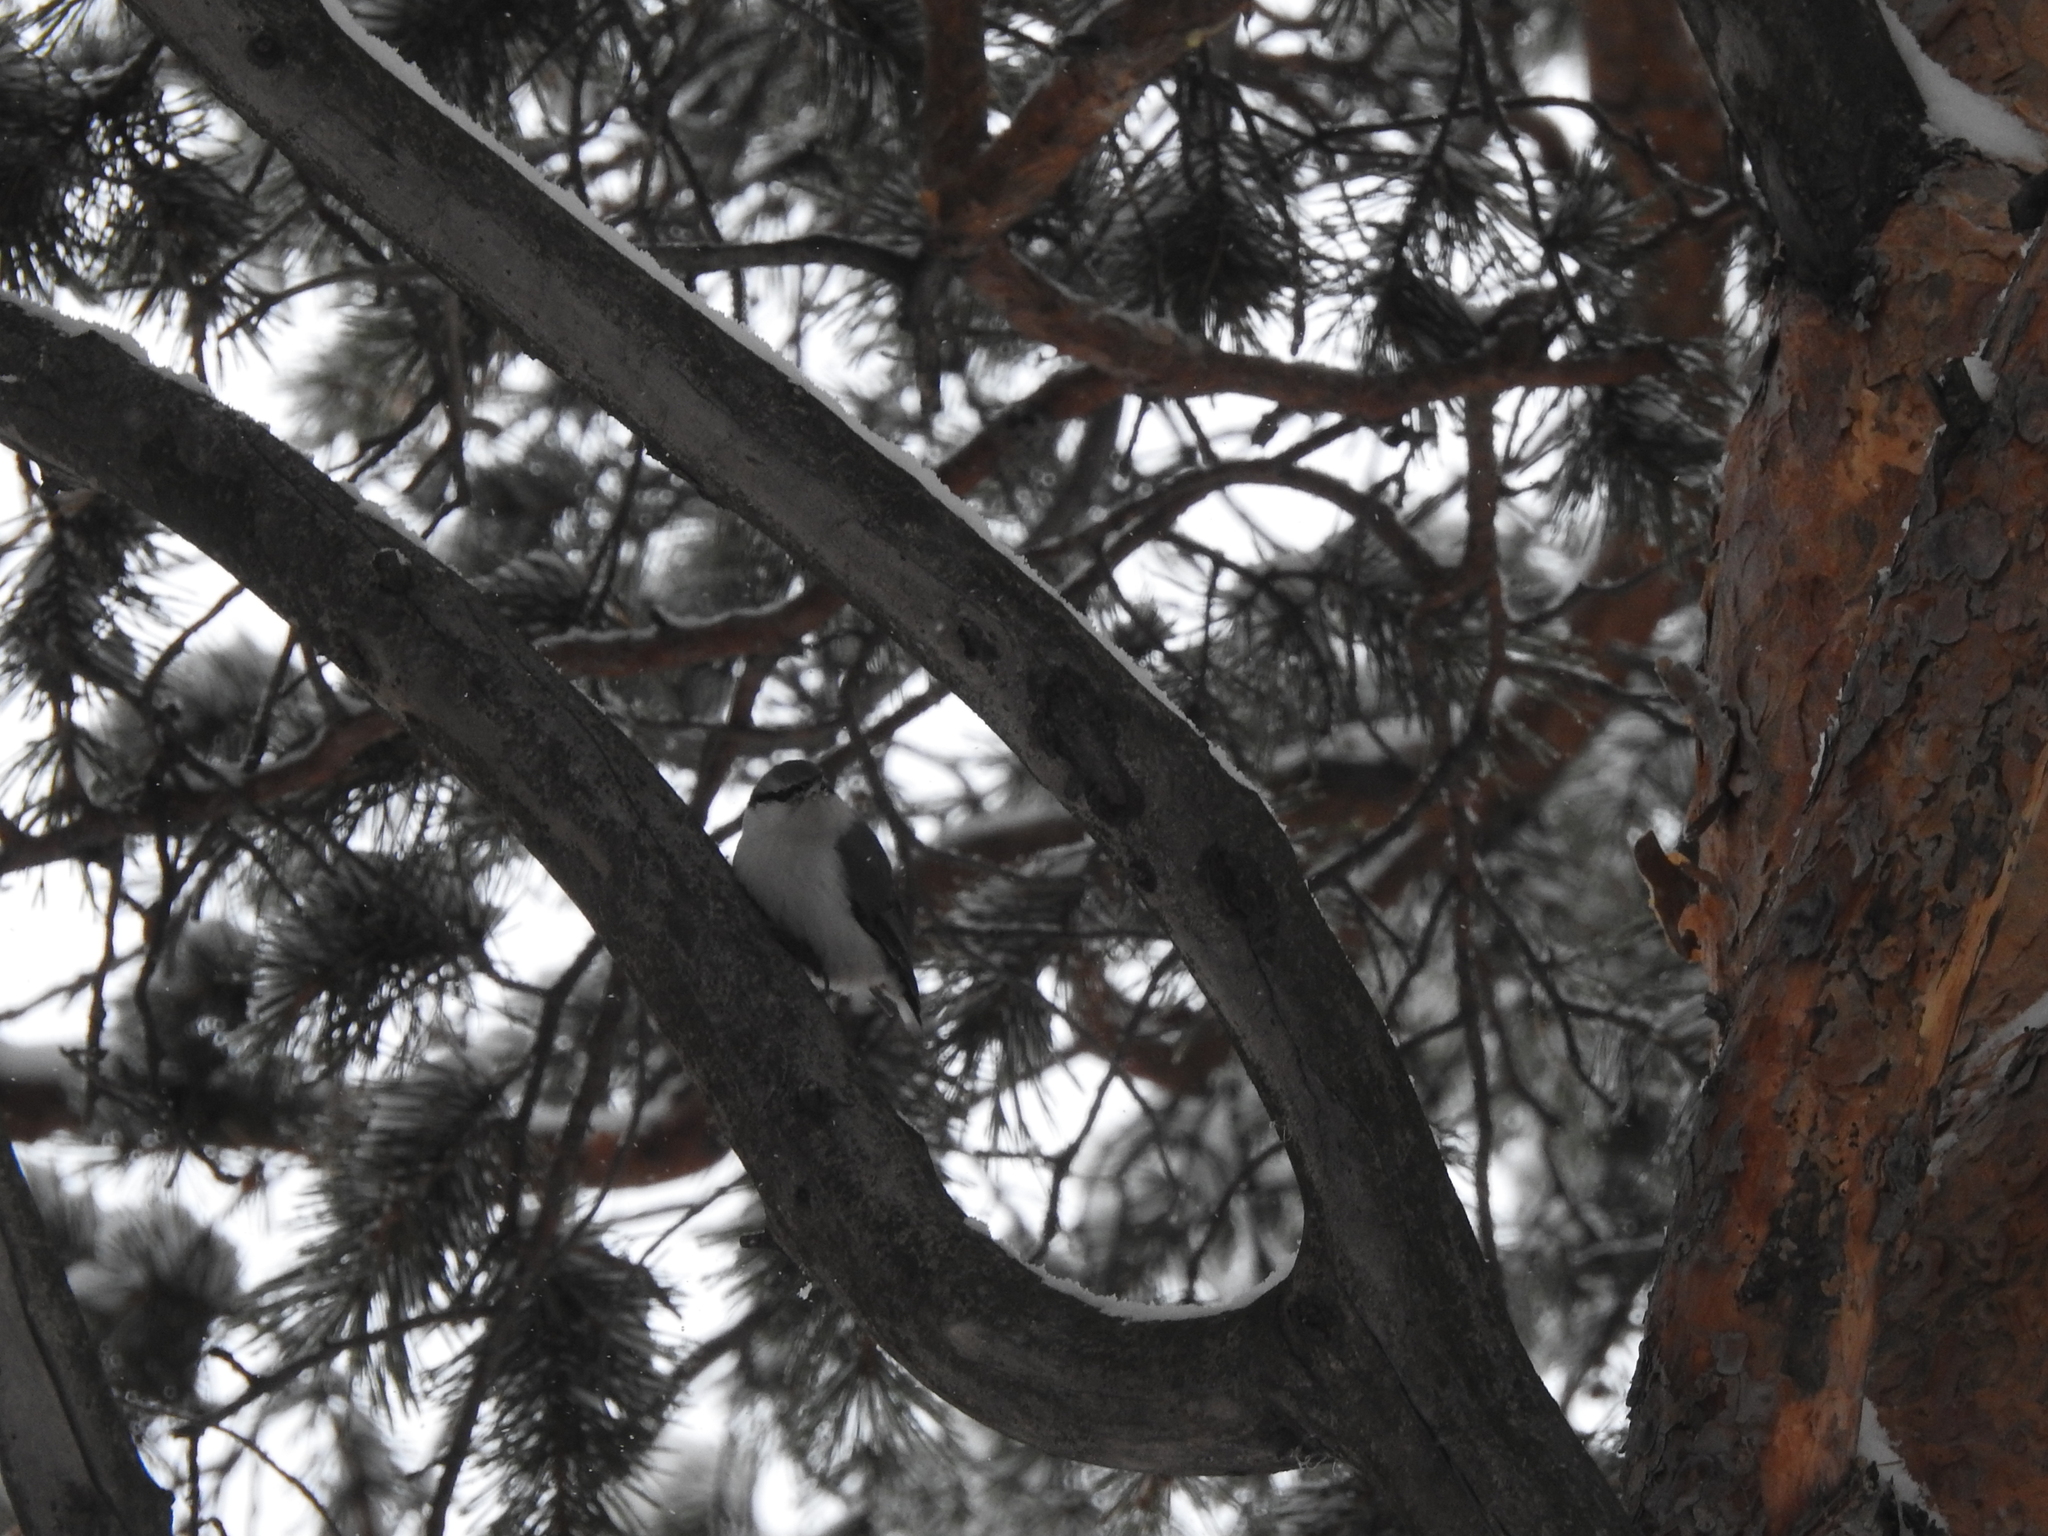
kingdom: Animalia
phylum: Chordata
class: Aves
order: Passeriformes
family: Sittidae
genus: Sitta
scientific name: Sitta europaea
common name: Eurasian nuthatch
